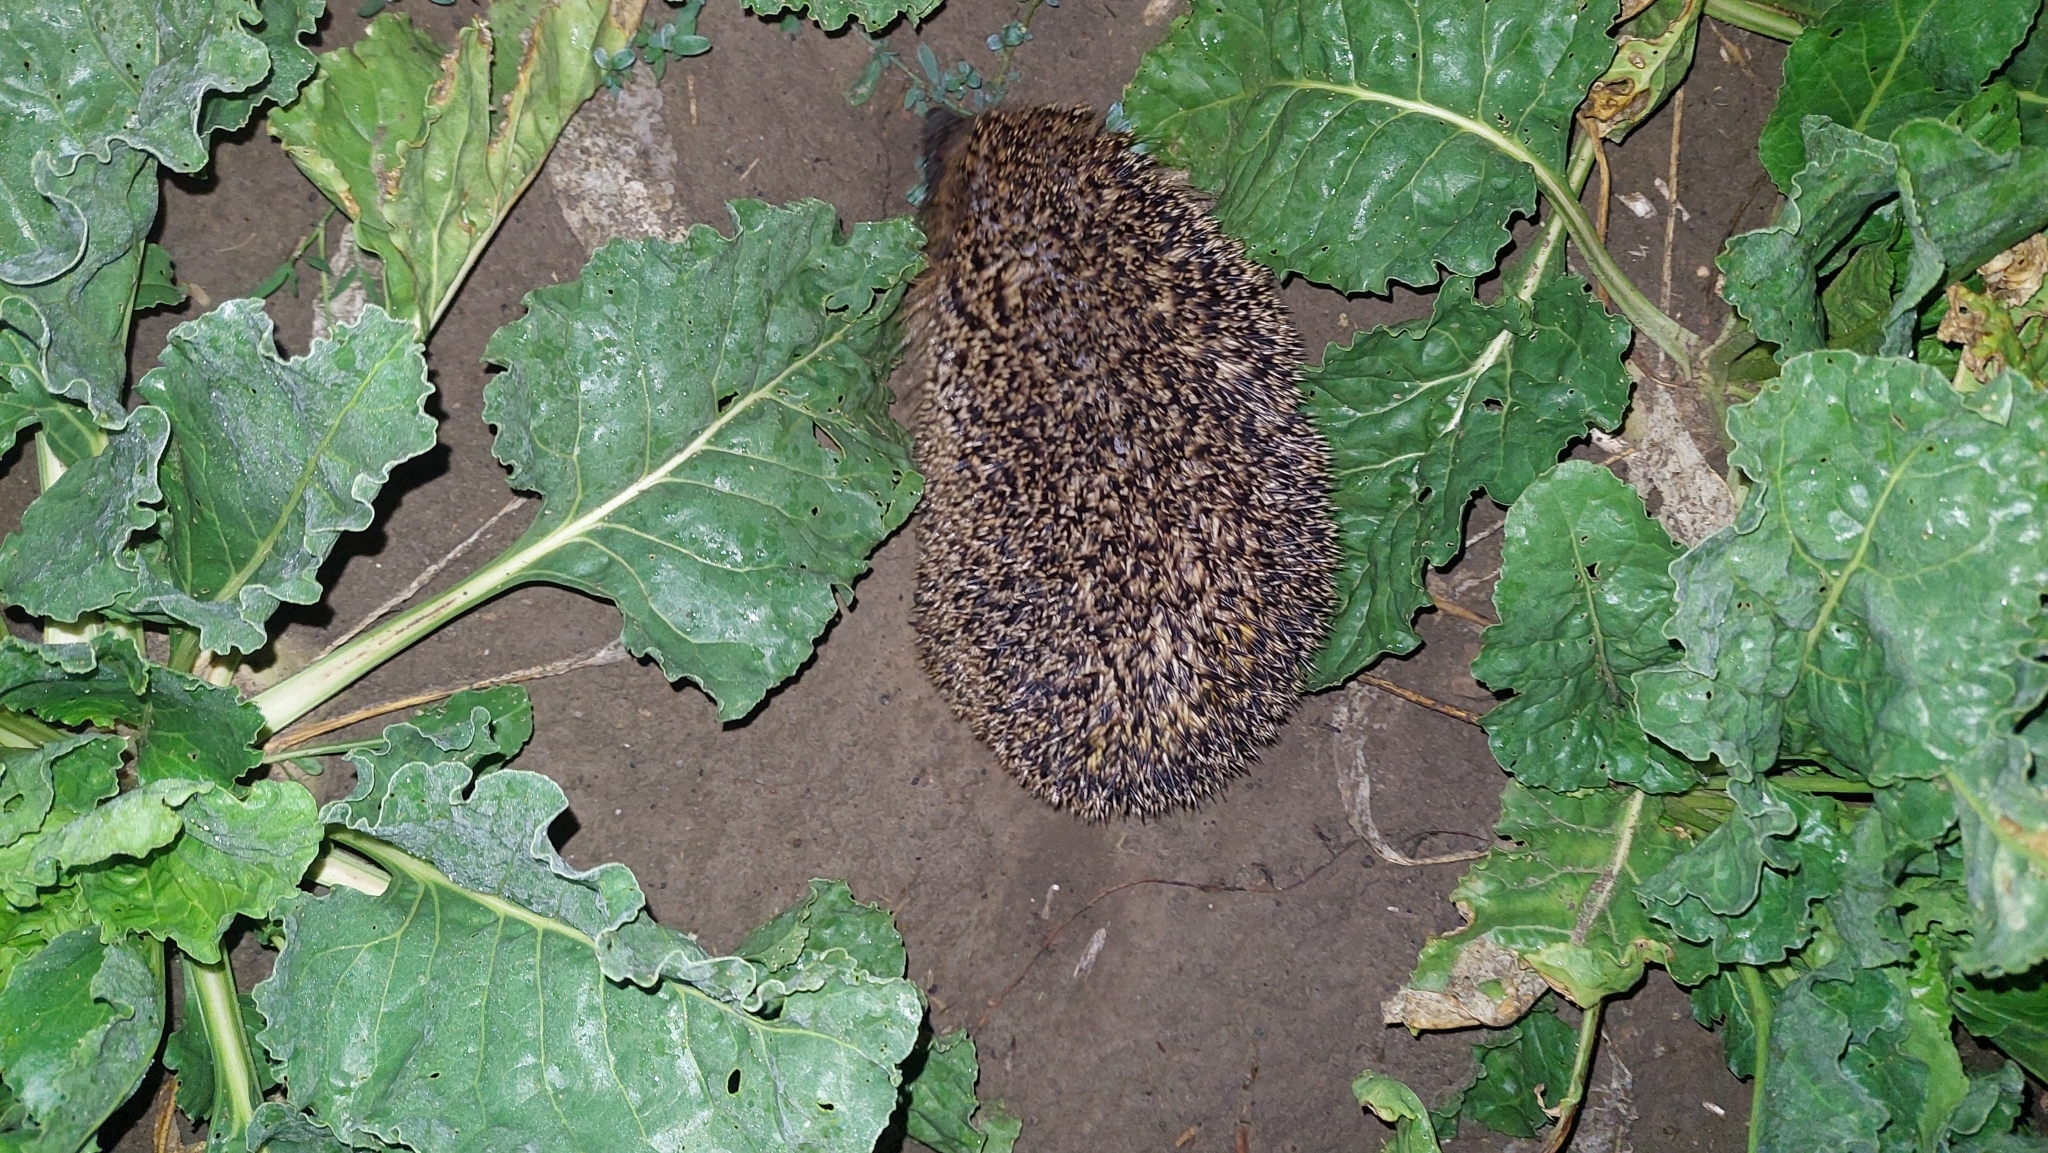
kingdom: Animalia
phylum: Chordata
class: Mammalia
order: Erinaceomorpha
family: Erinaceidae
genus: Erinaceus
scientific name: Erinaceus europaeus
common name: West european hedgehog
